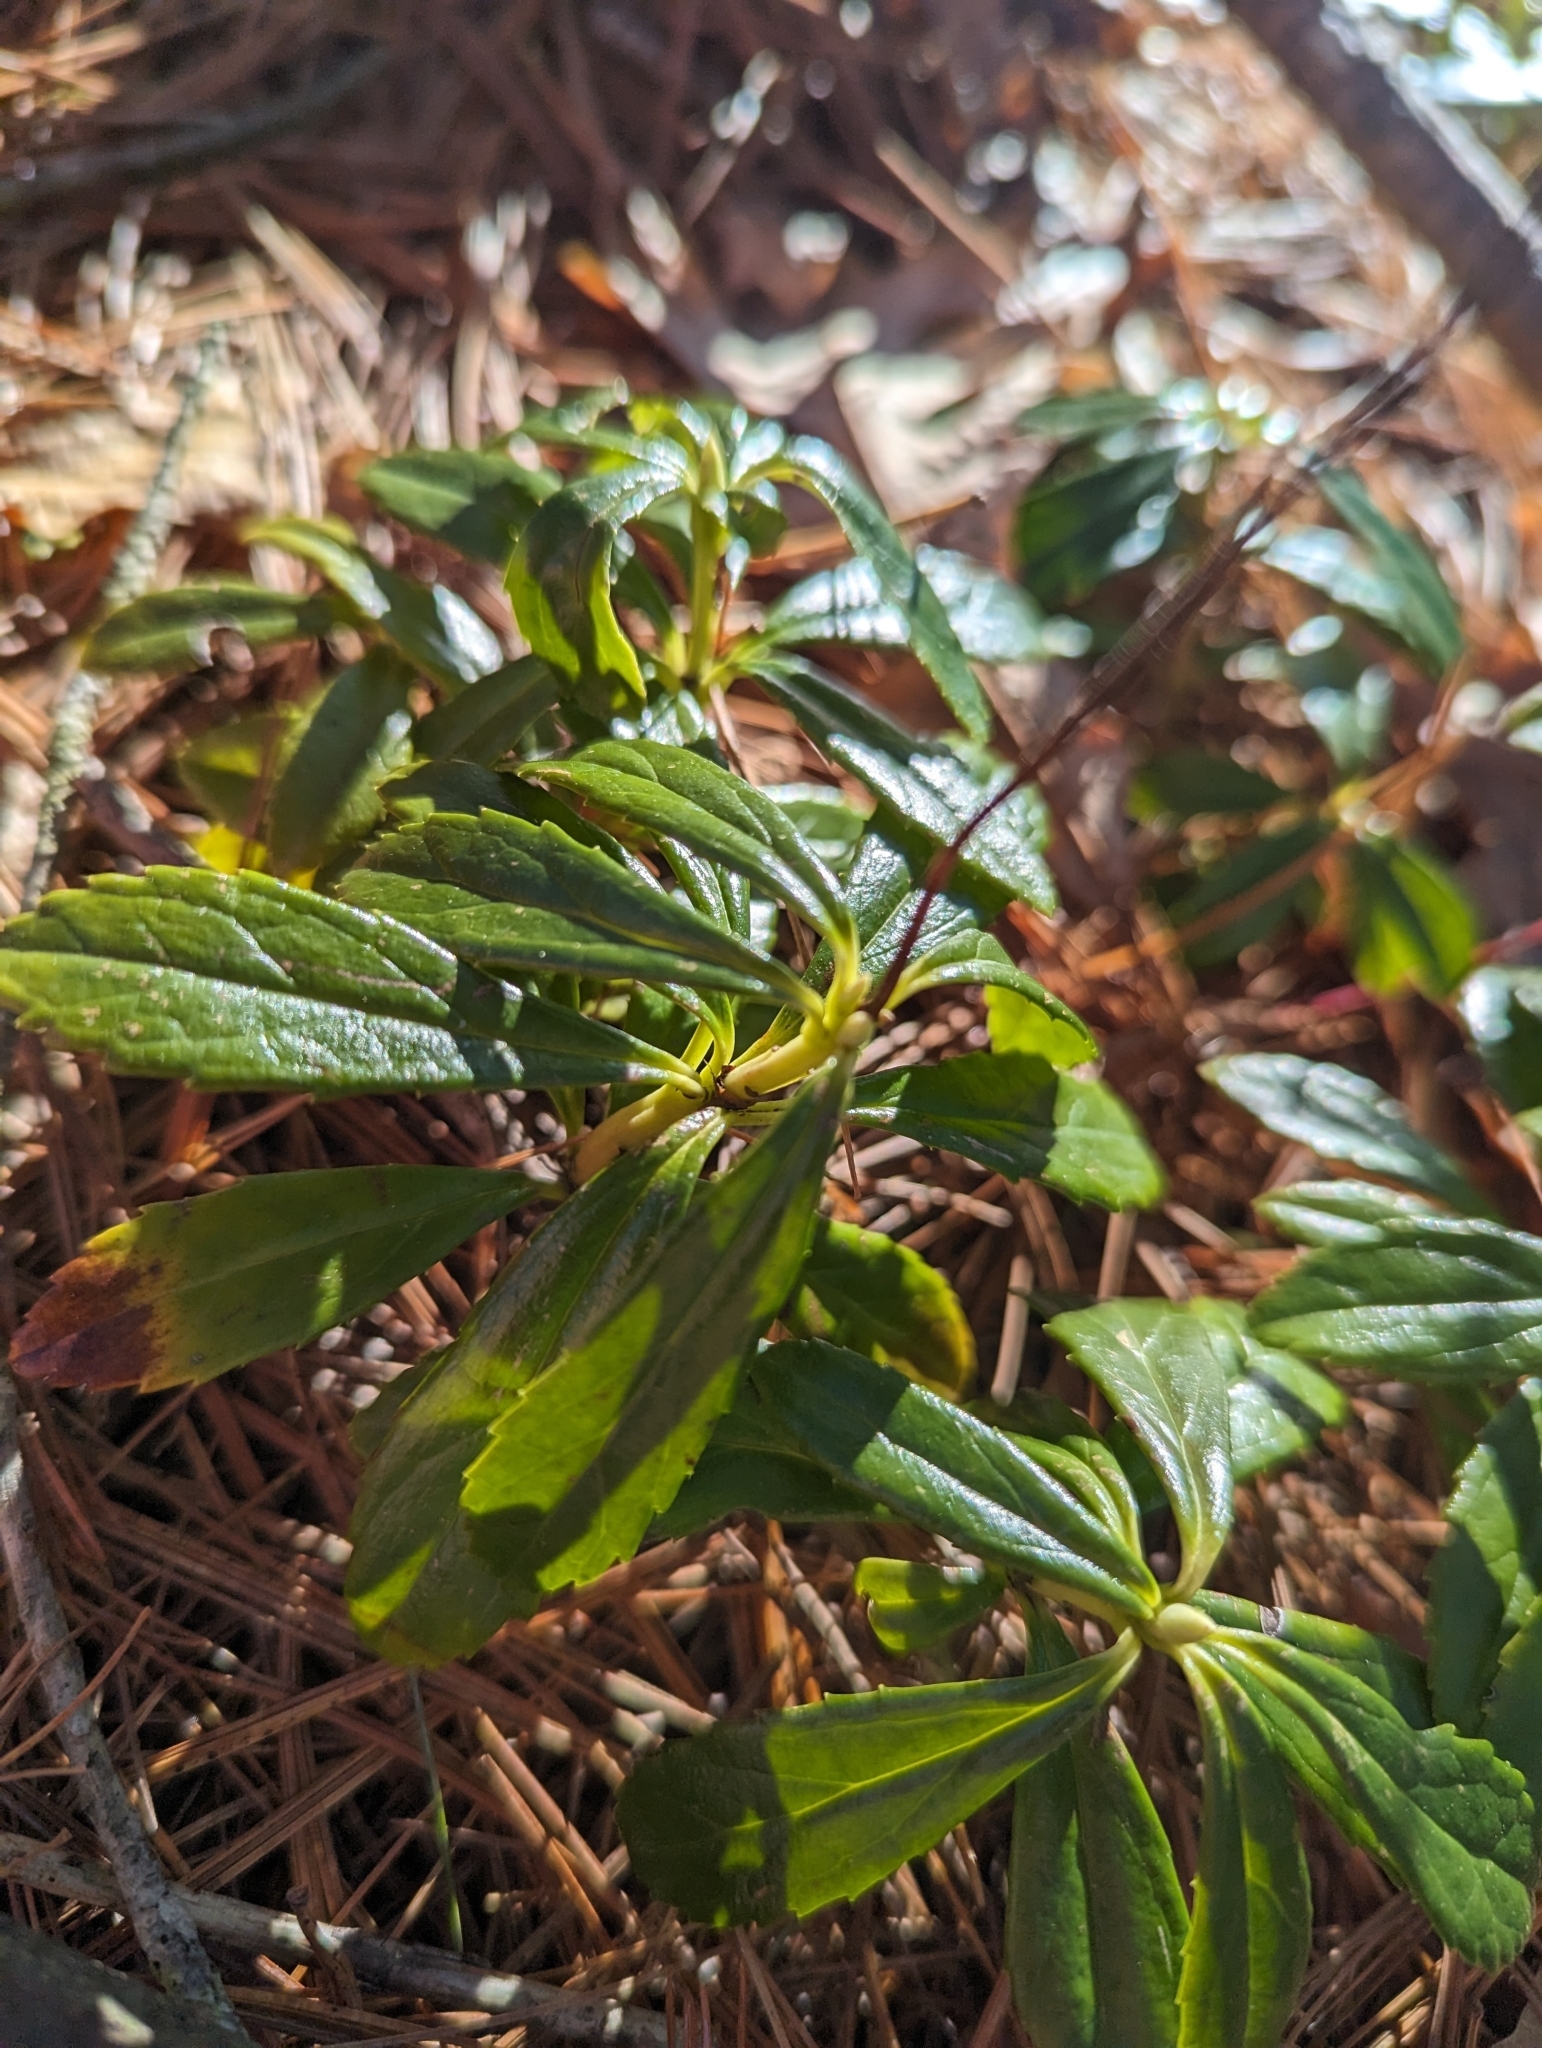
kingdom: Plantae
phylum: Tracheophyta
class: Magnoliopsida
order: Ericales
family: Ericaceae
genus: Chimaphila
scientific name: Chimaphila umbellata
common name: Pipsissewa
